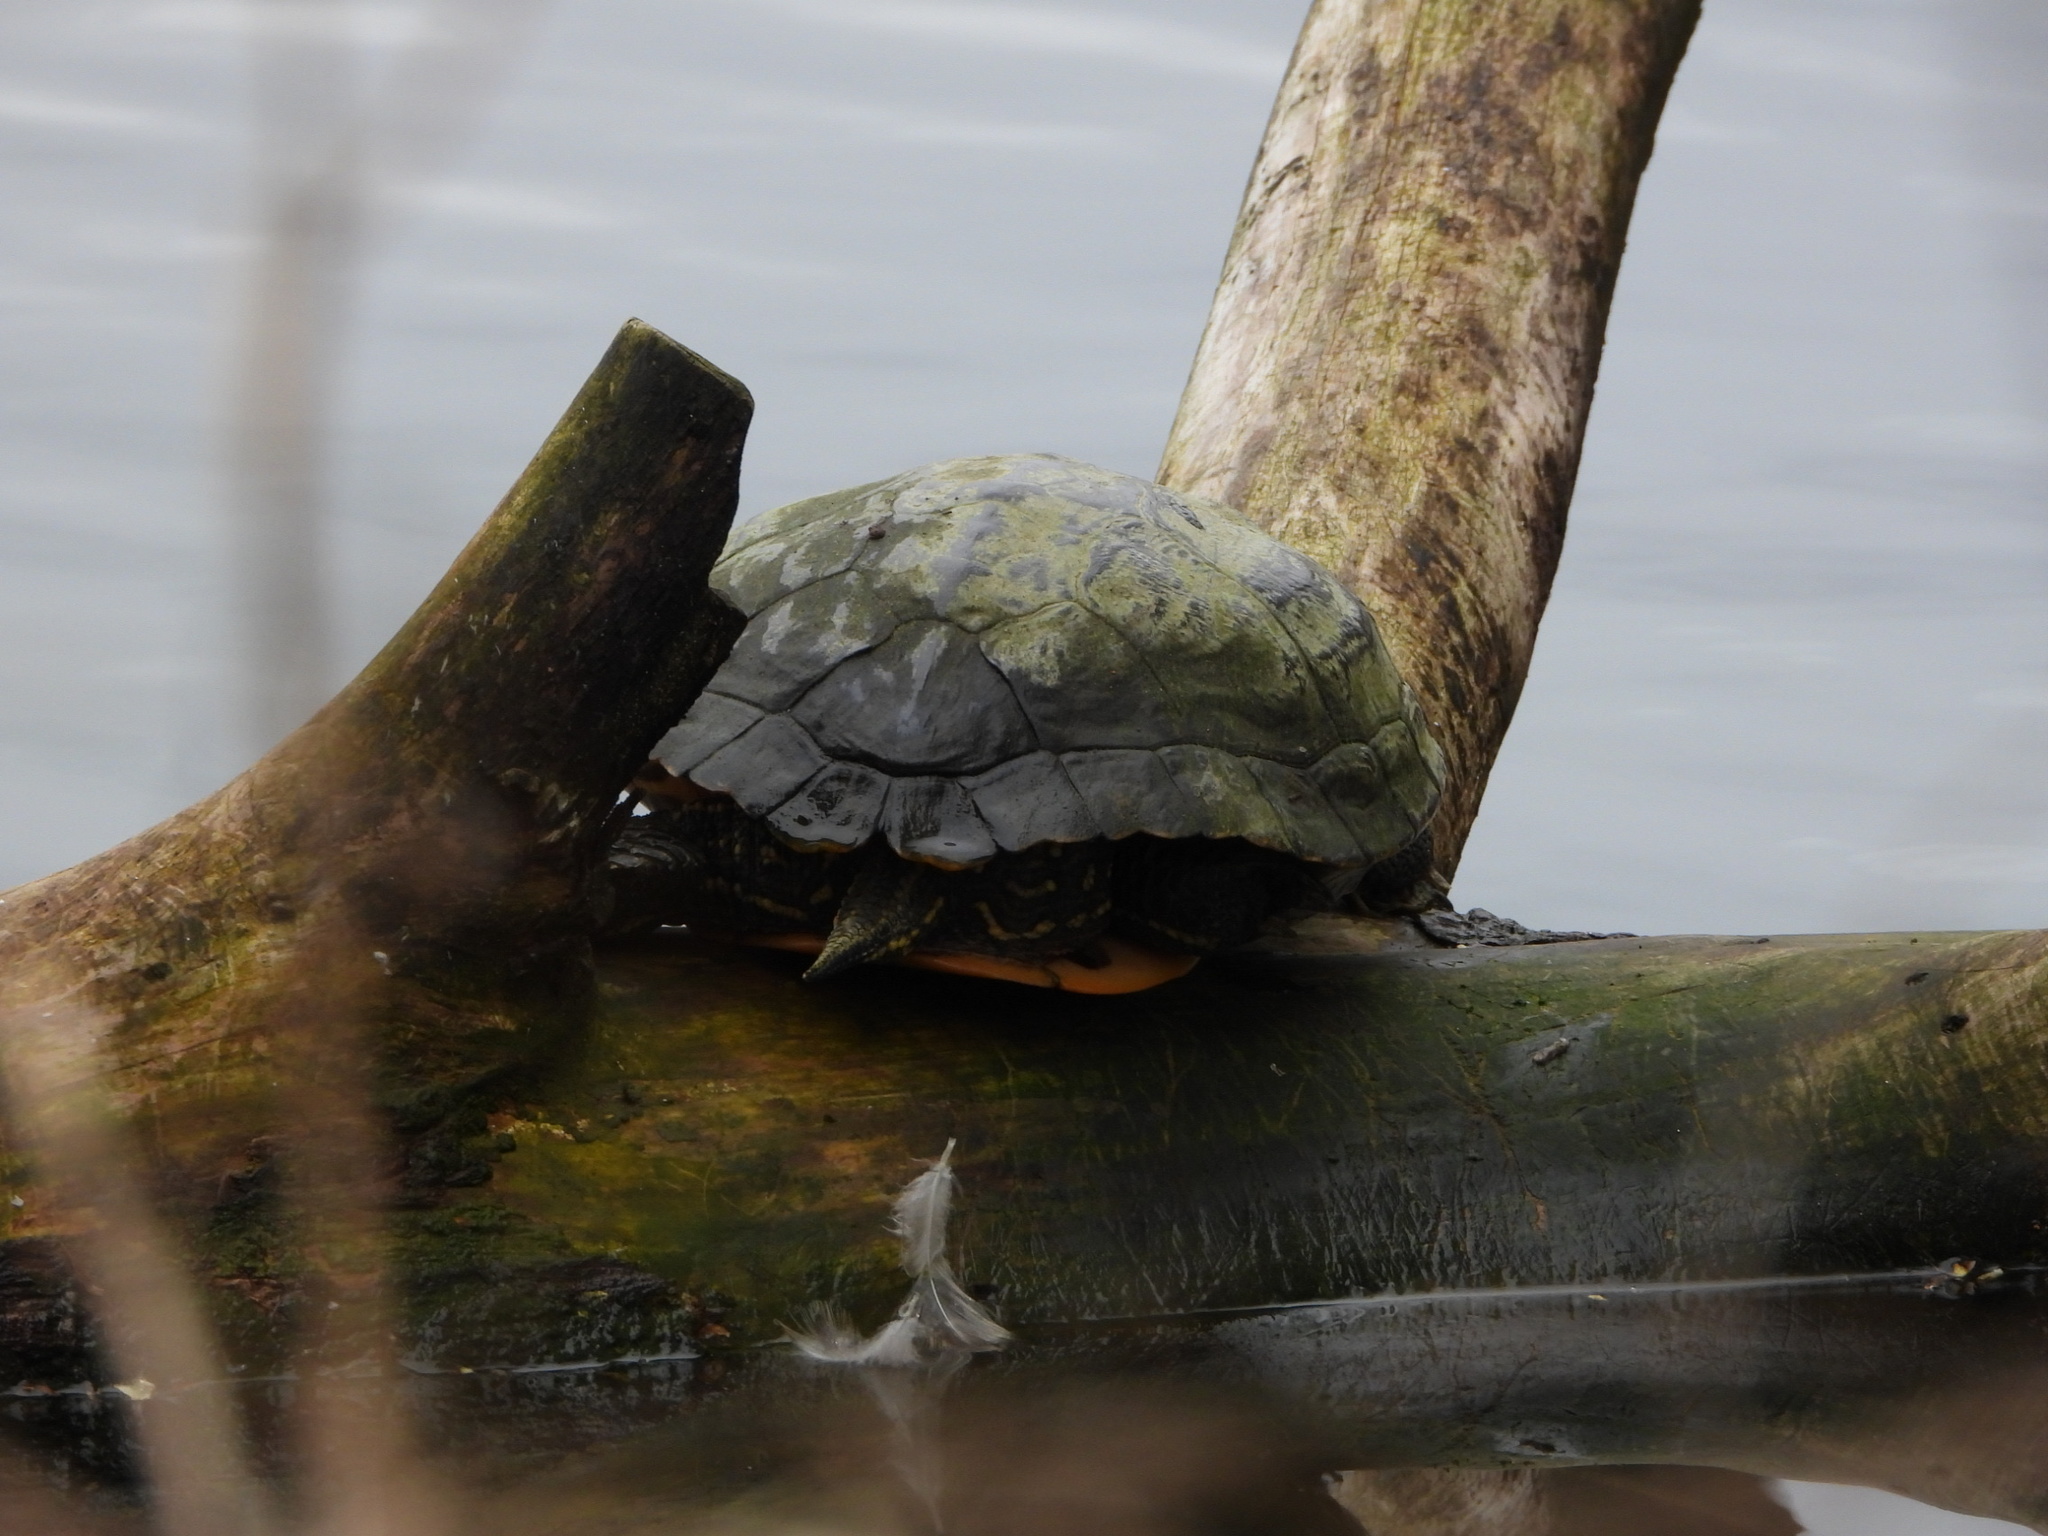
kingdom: Animalia
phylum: Chordata
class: Testudines
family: Emydidae
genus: Trachemys
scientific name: Trachemys scripta
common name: Slider
